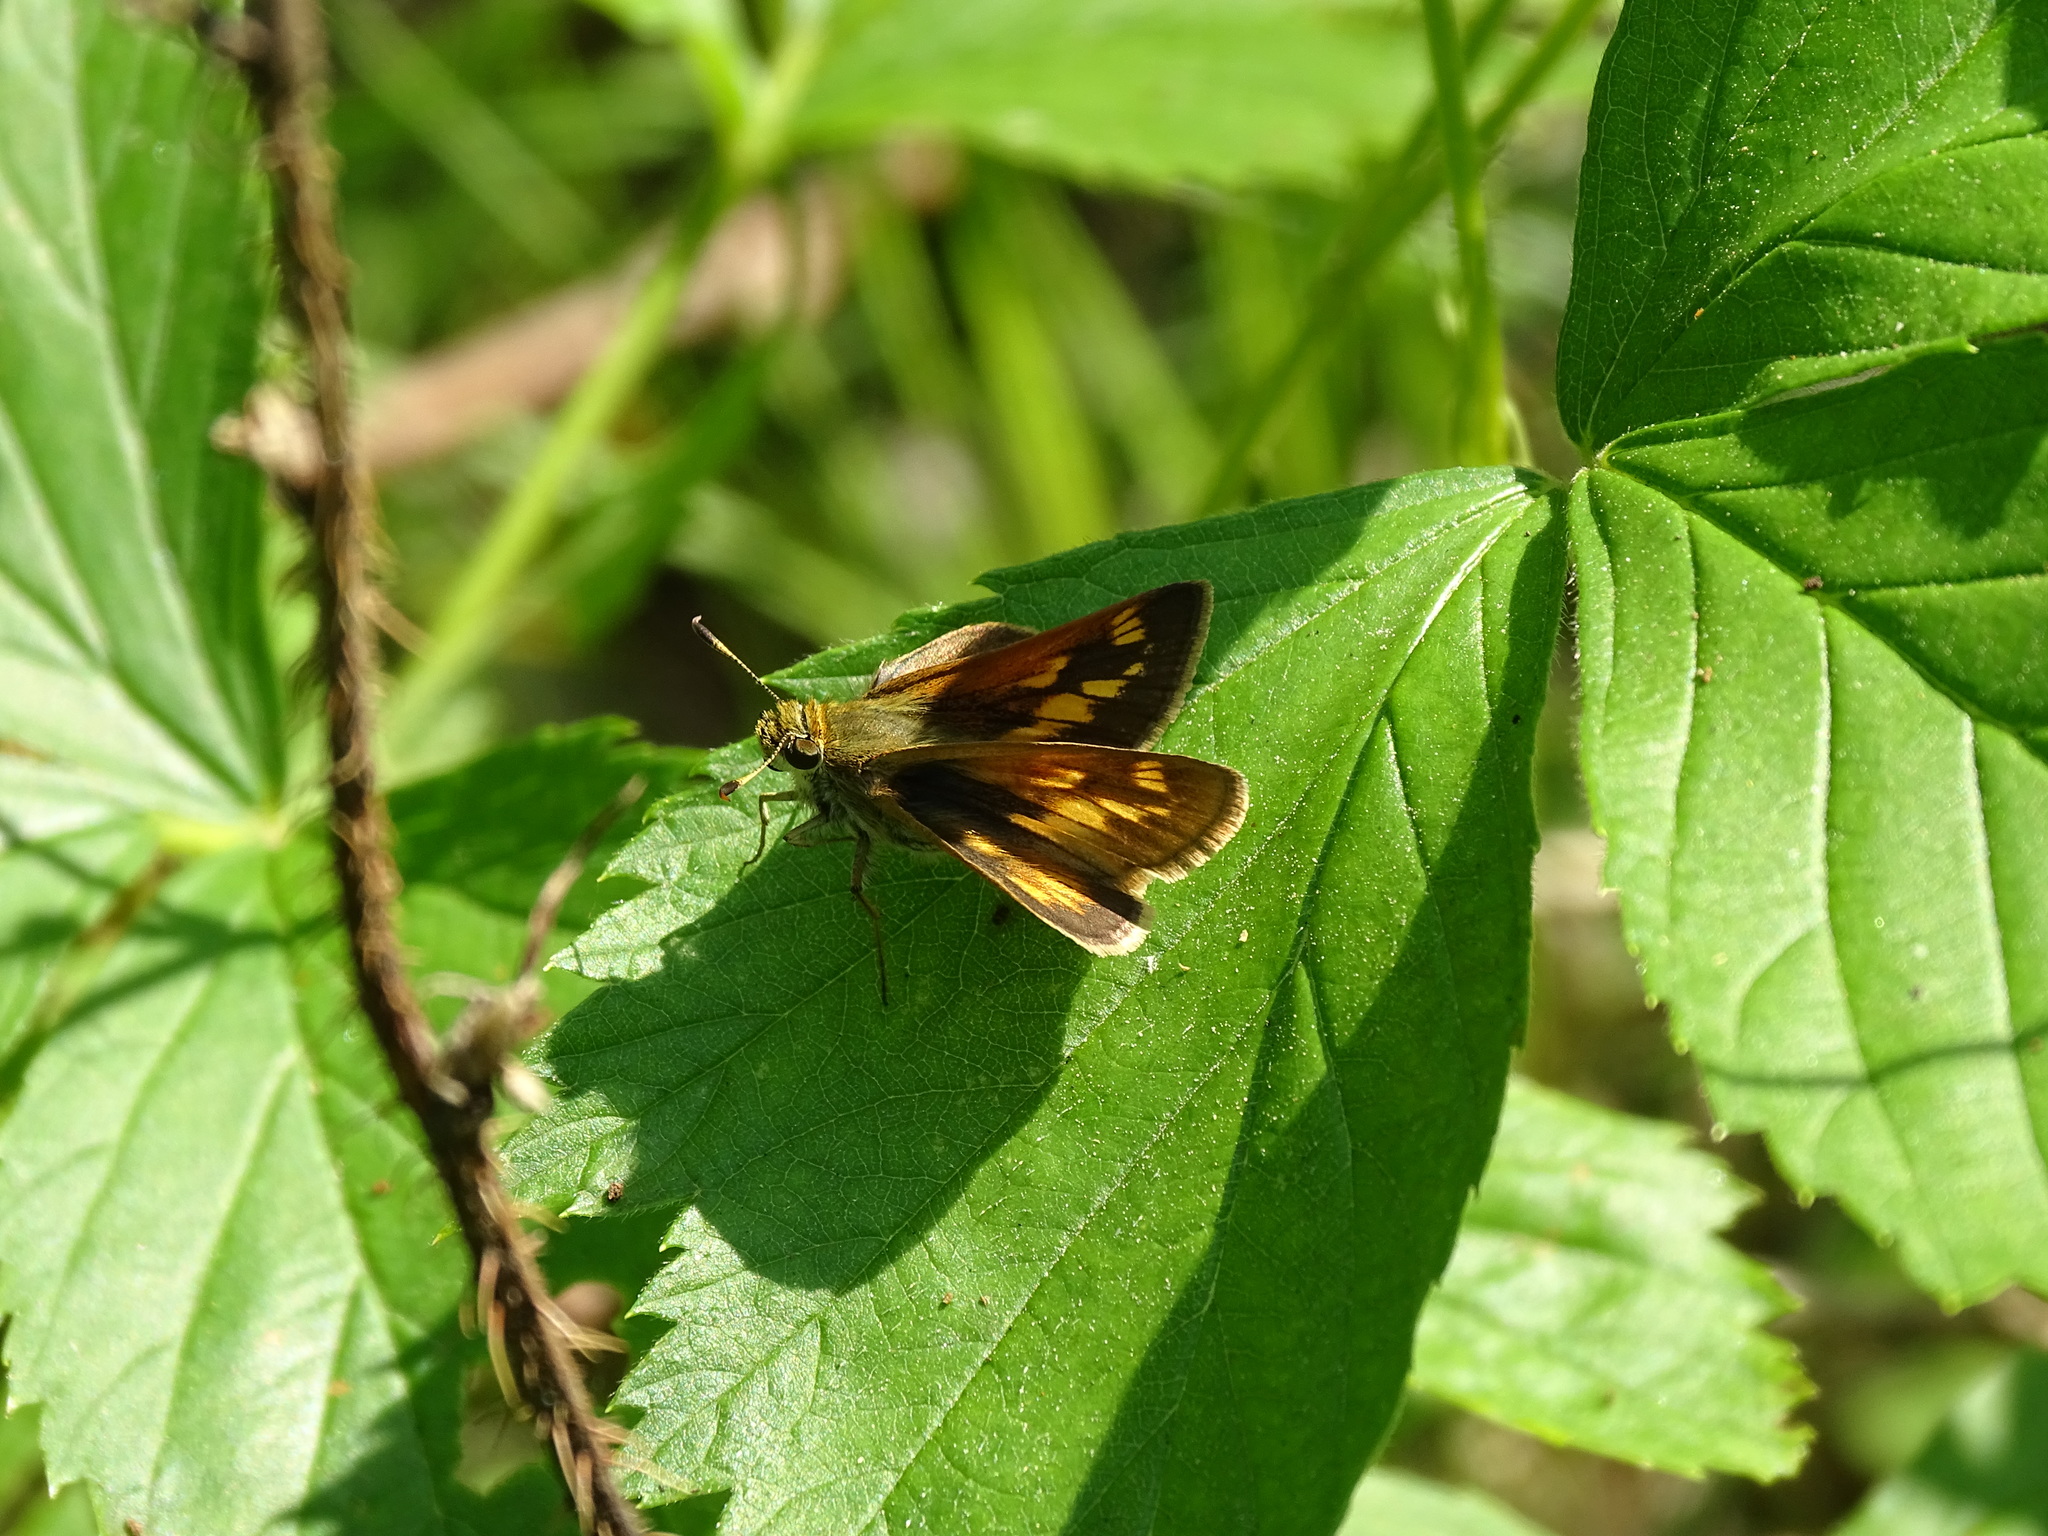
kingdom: Animalia
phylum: Arthropoda
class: Insecta
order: Lepidoptera
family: Hesperiidae
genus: Polites
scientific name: Polites mystic
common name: Long dash
